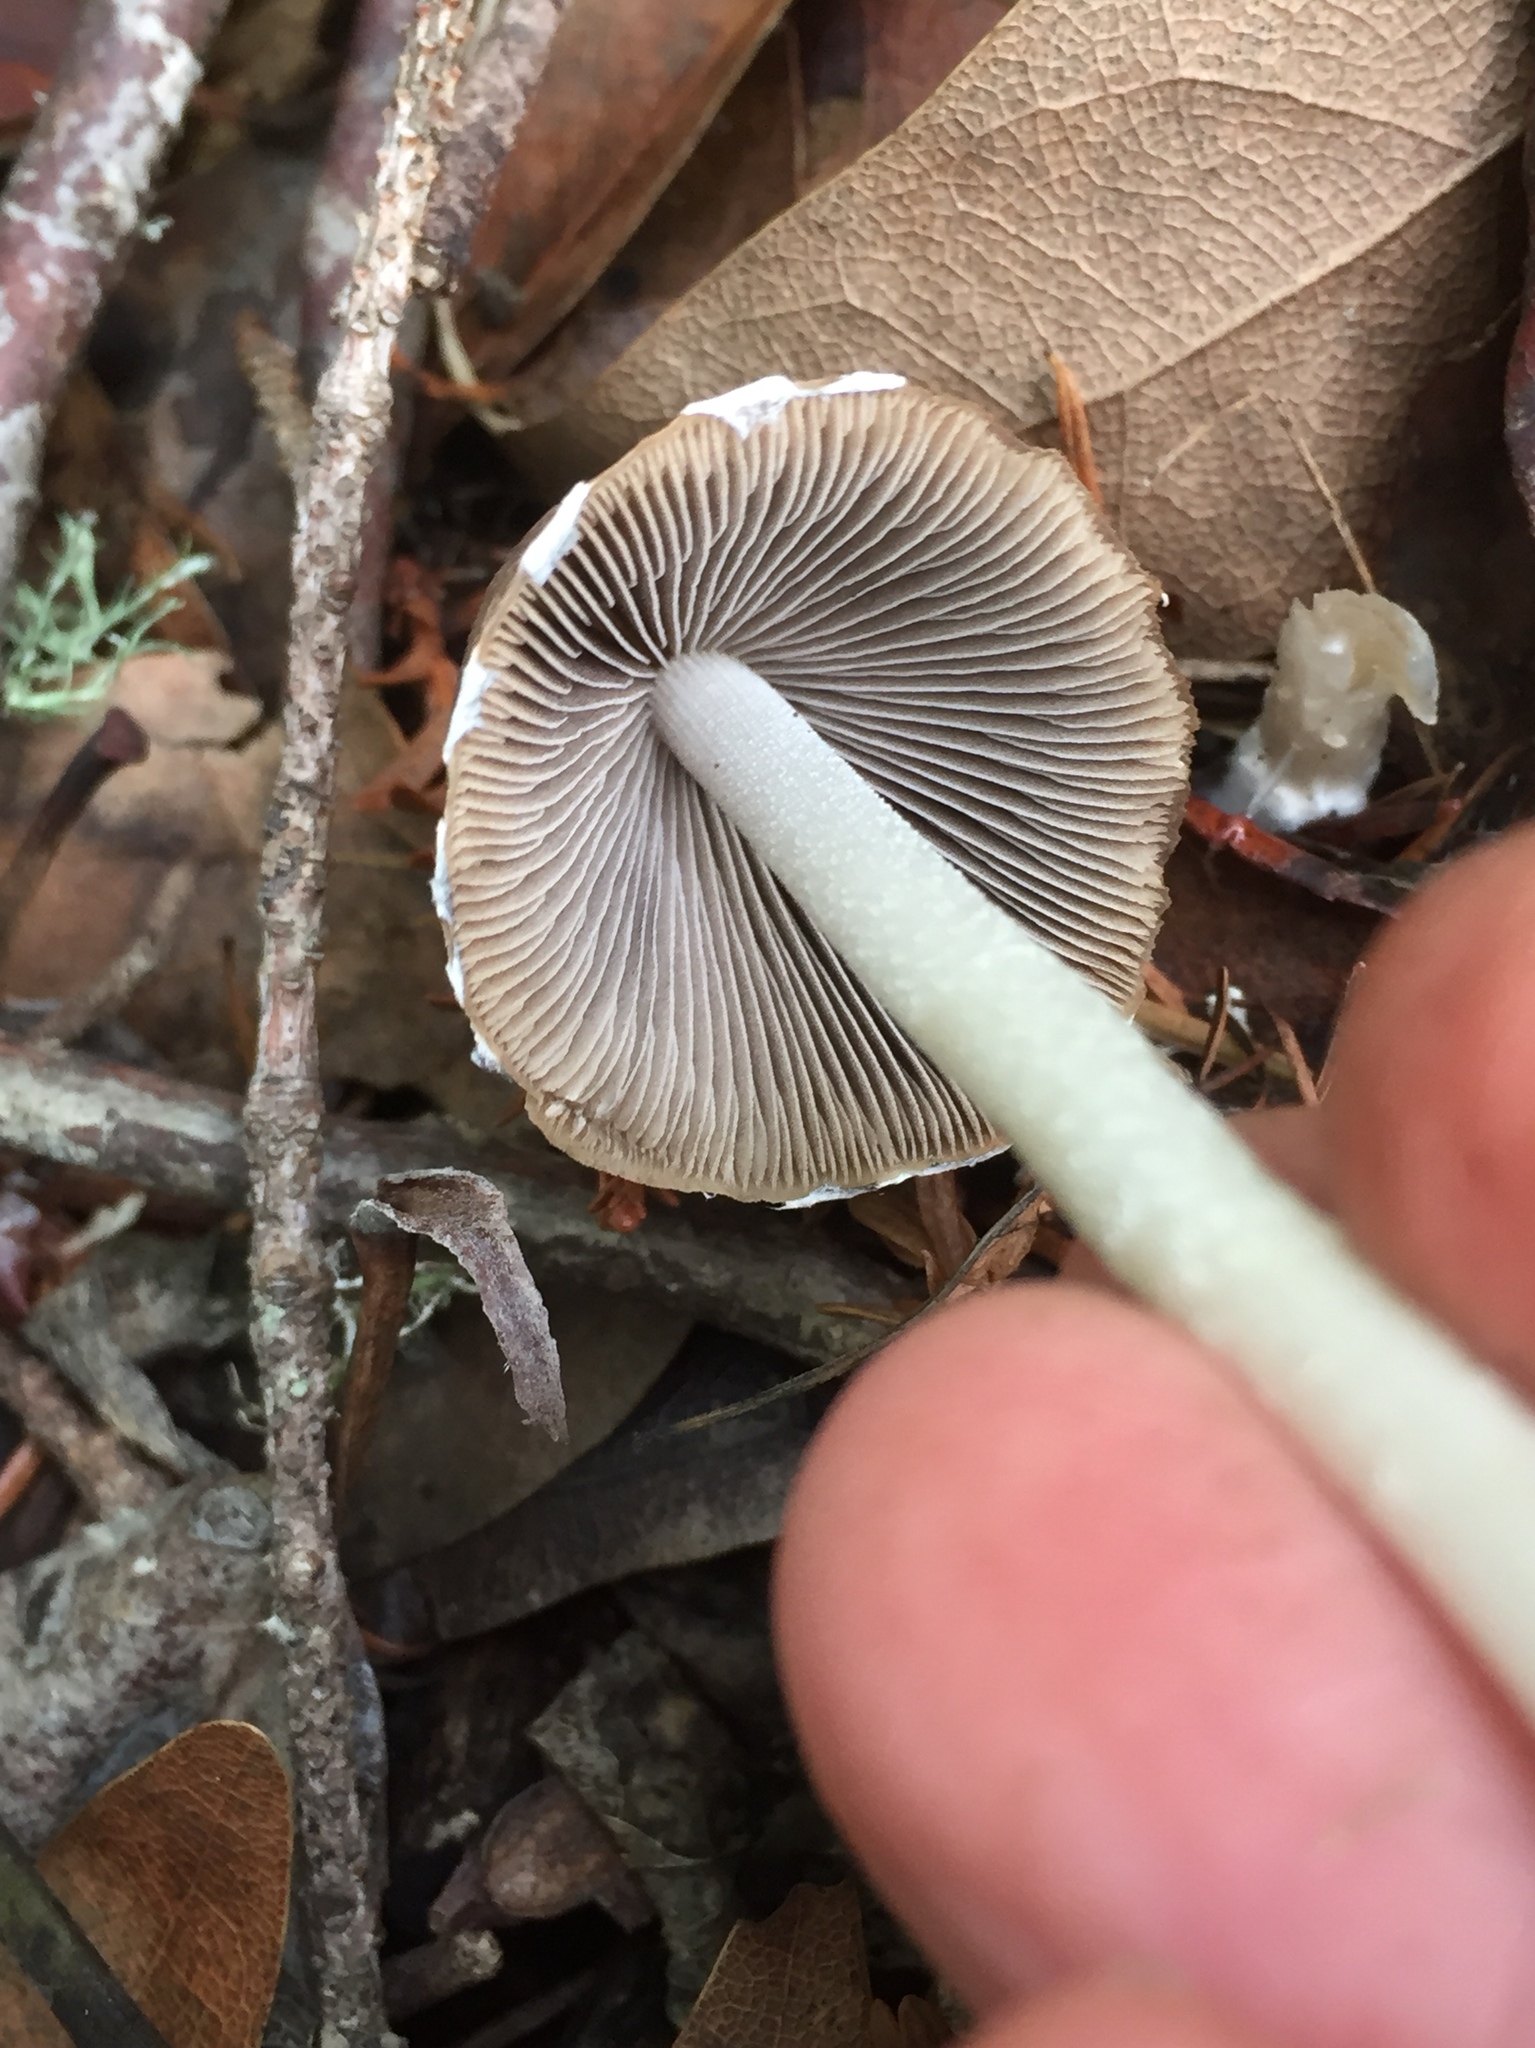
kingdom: Fungi
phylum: Basidiomycota
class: Agaricomycetes
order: Agaricales
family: Psathyrellaceae
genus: Psathyrella
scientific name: Psathyrella longipes
